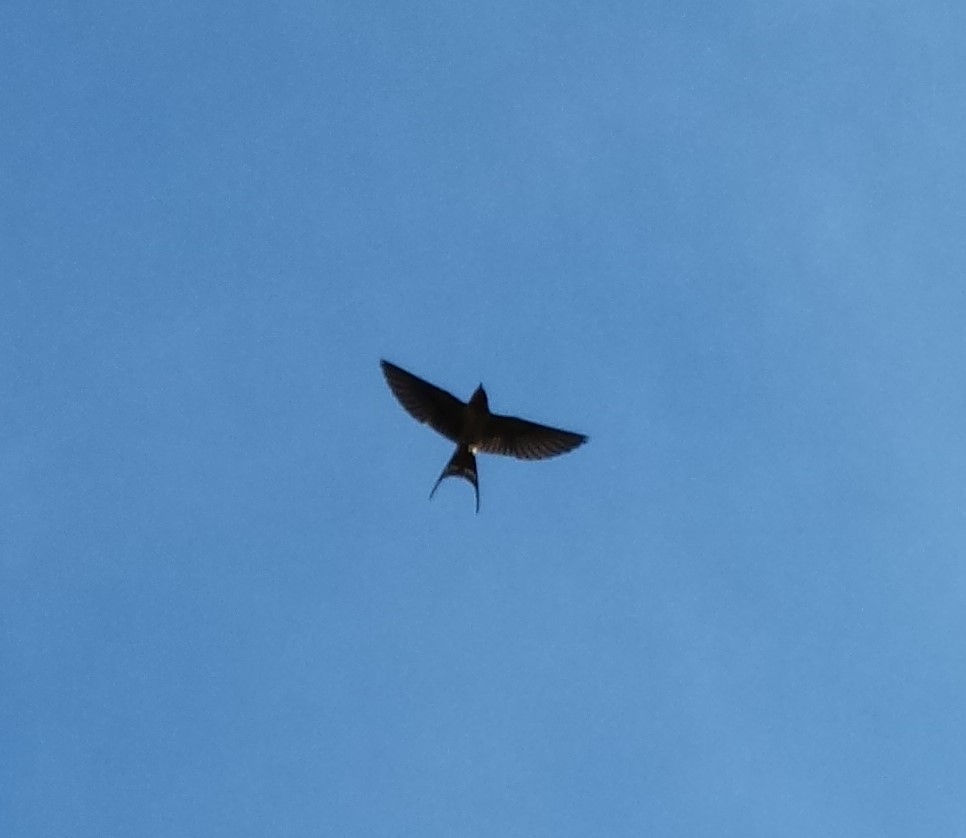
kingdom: Animalia
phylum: Chordata
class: Aves
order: Passeriformes
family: Hirundinidae
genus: Hirundo
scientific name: Hirundo rustica
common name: Barn swallow
